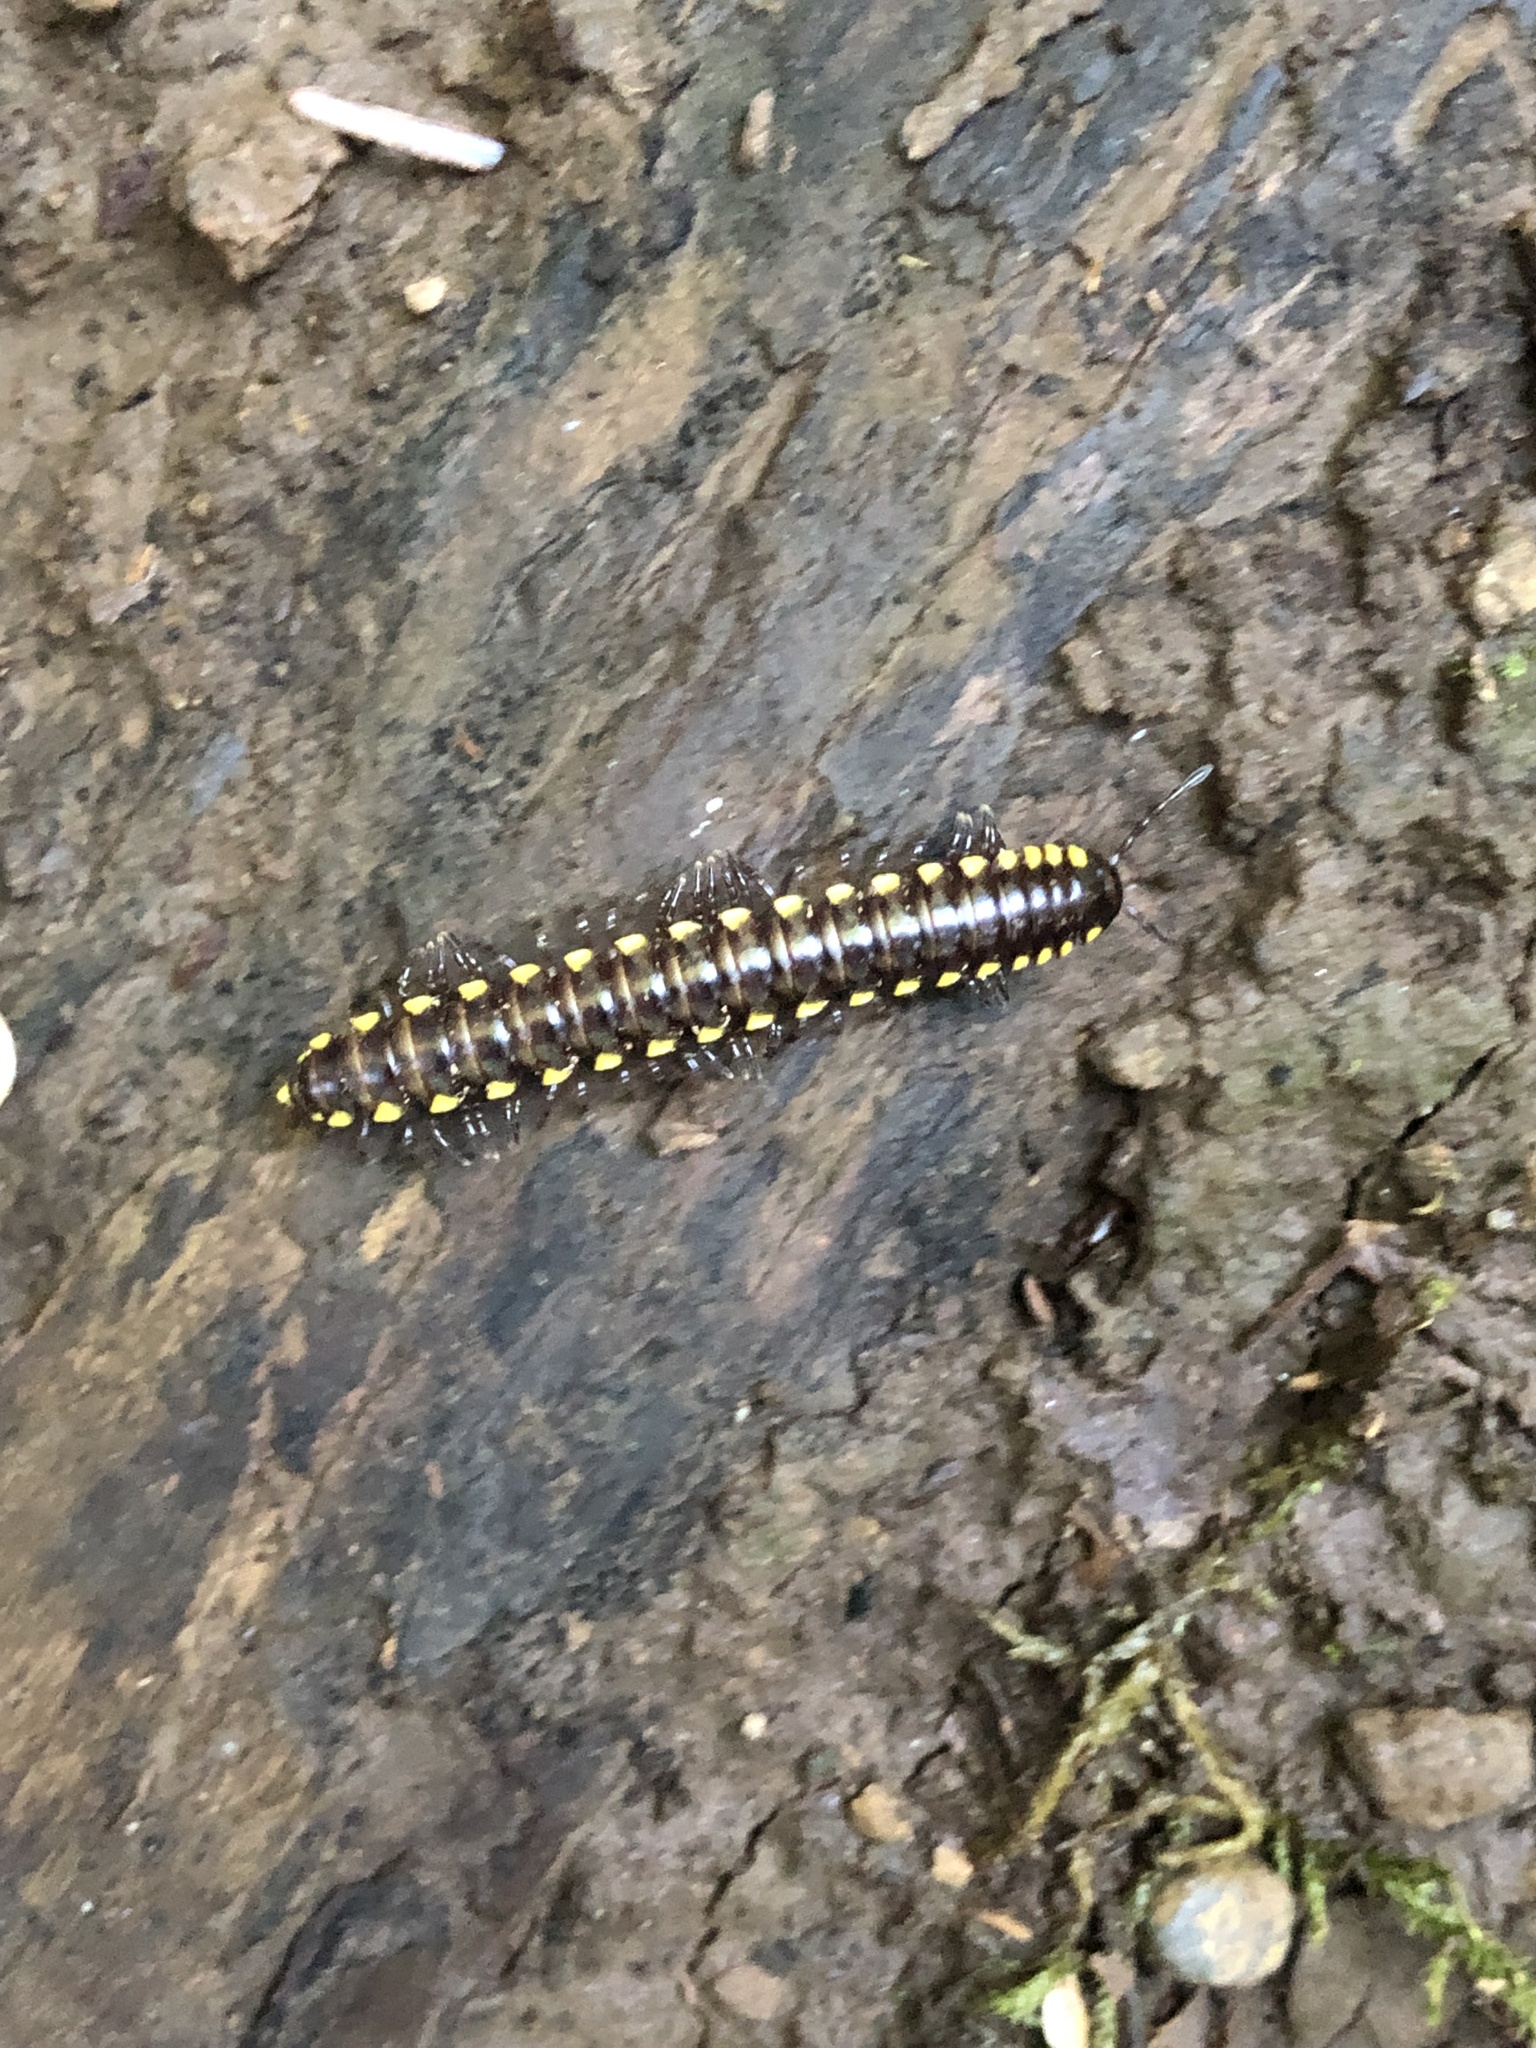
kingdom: Animalia
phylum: Arthropoda
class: Diplopoda
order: Polydesmida
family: Xystodesmidae
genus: Harpaphe
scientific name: Harpaphe haydeniana
